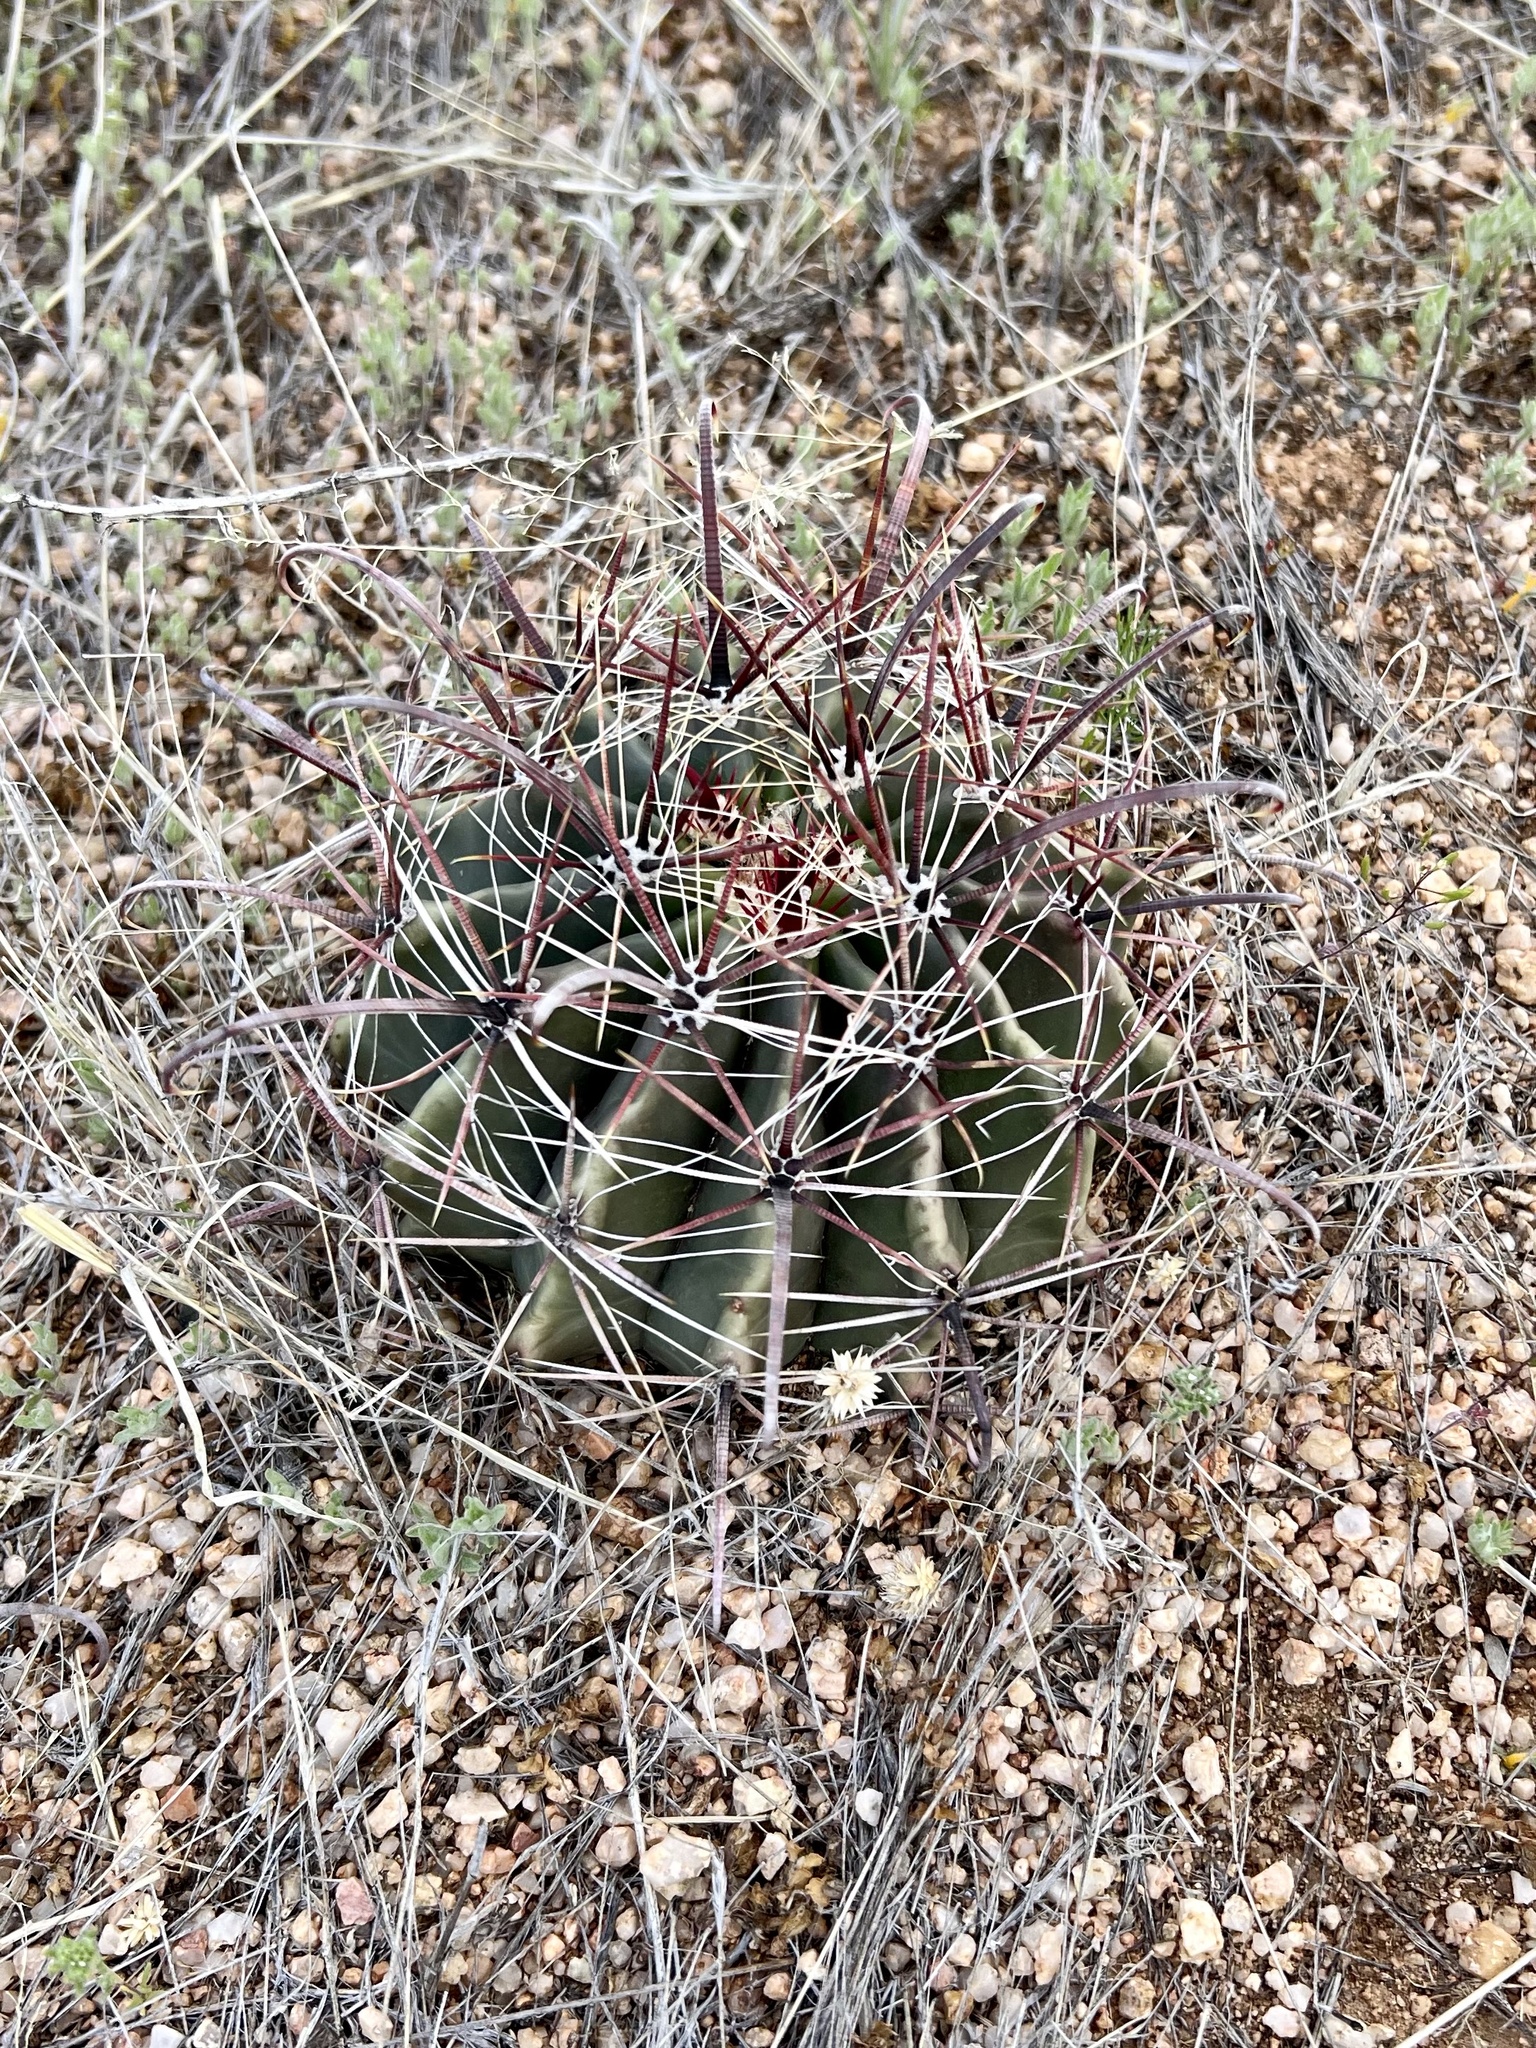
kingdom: Plantae
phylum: Tracheophyta
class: Magnoliopsida
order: Caryophyllales
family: Cactaceae
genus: Ferocactus
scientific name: Ferocactus wislizeni
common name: Candy barrel cactus
